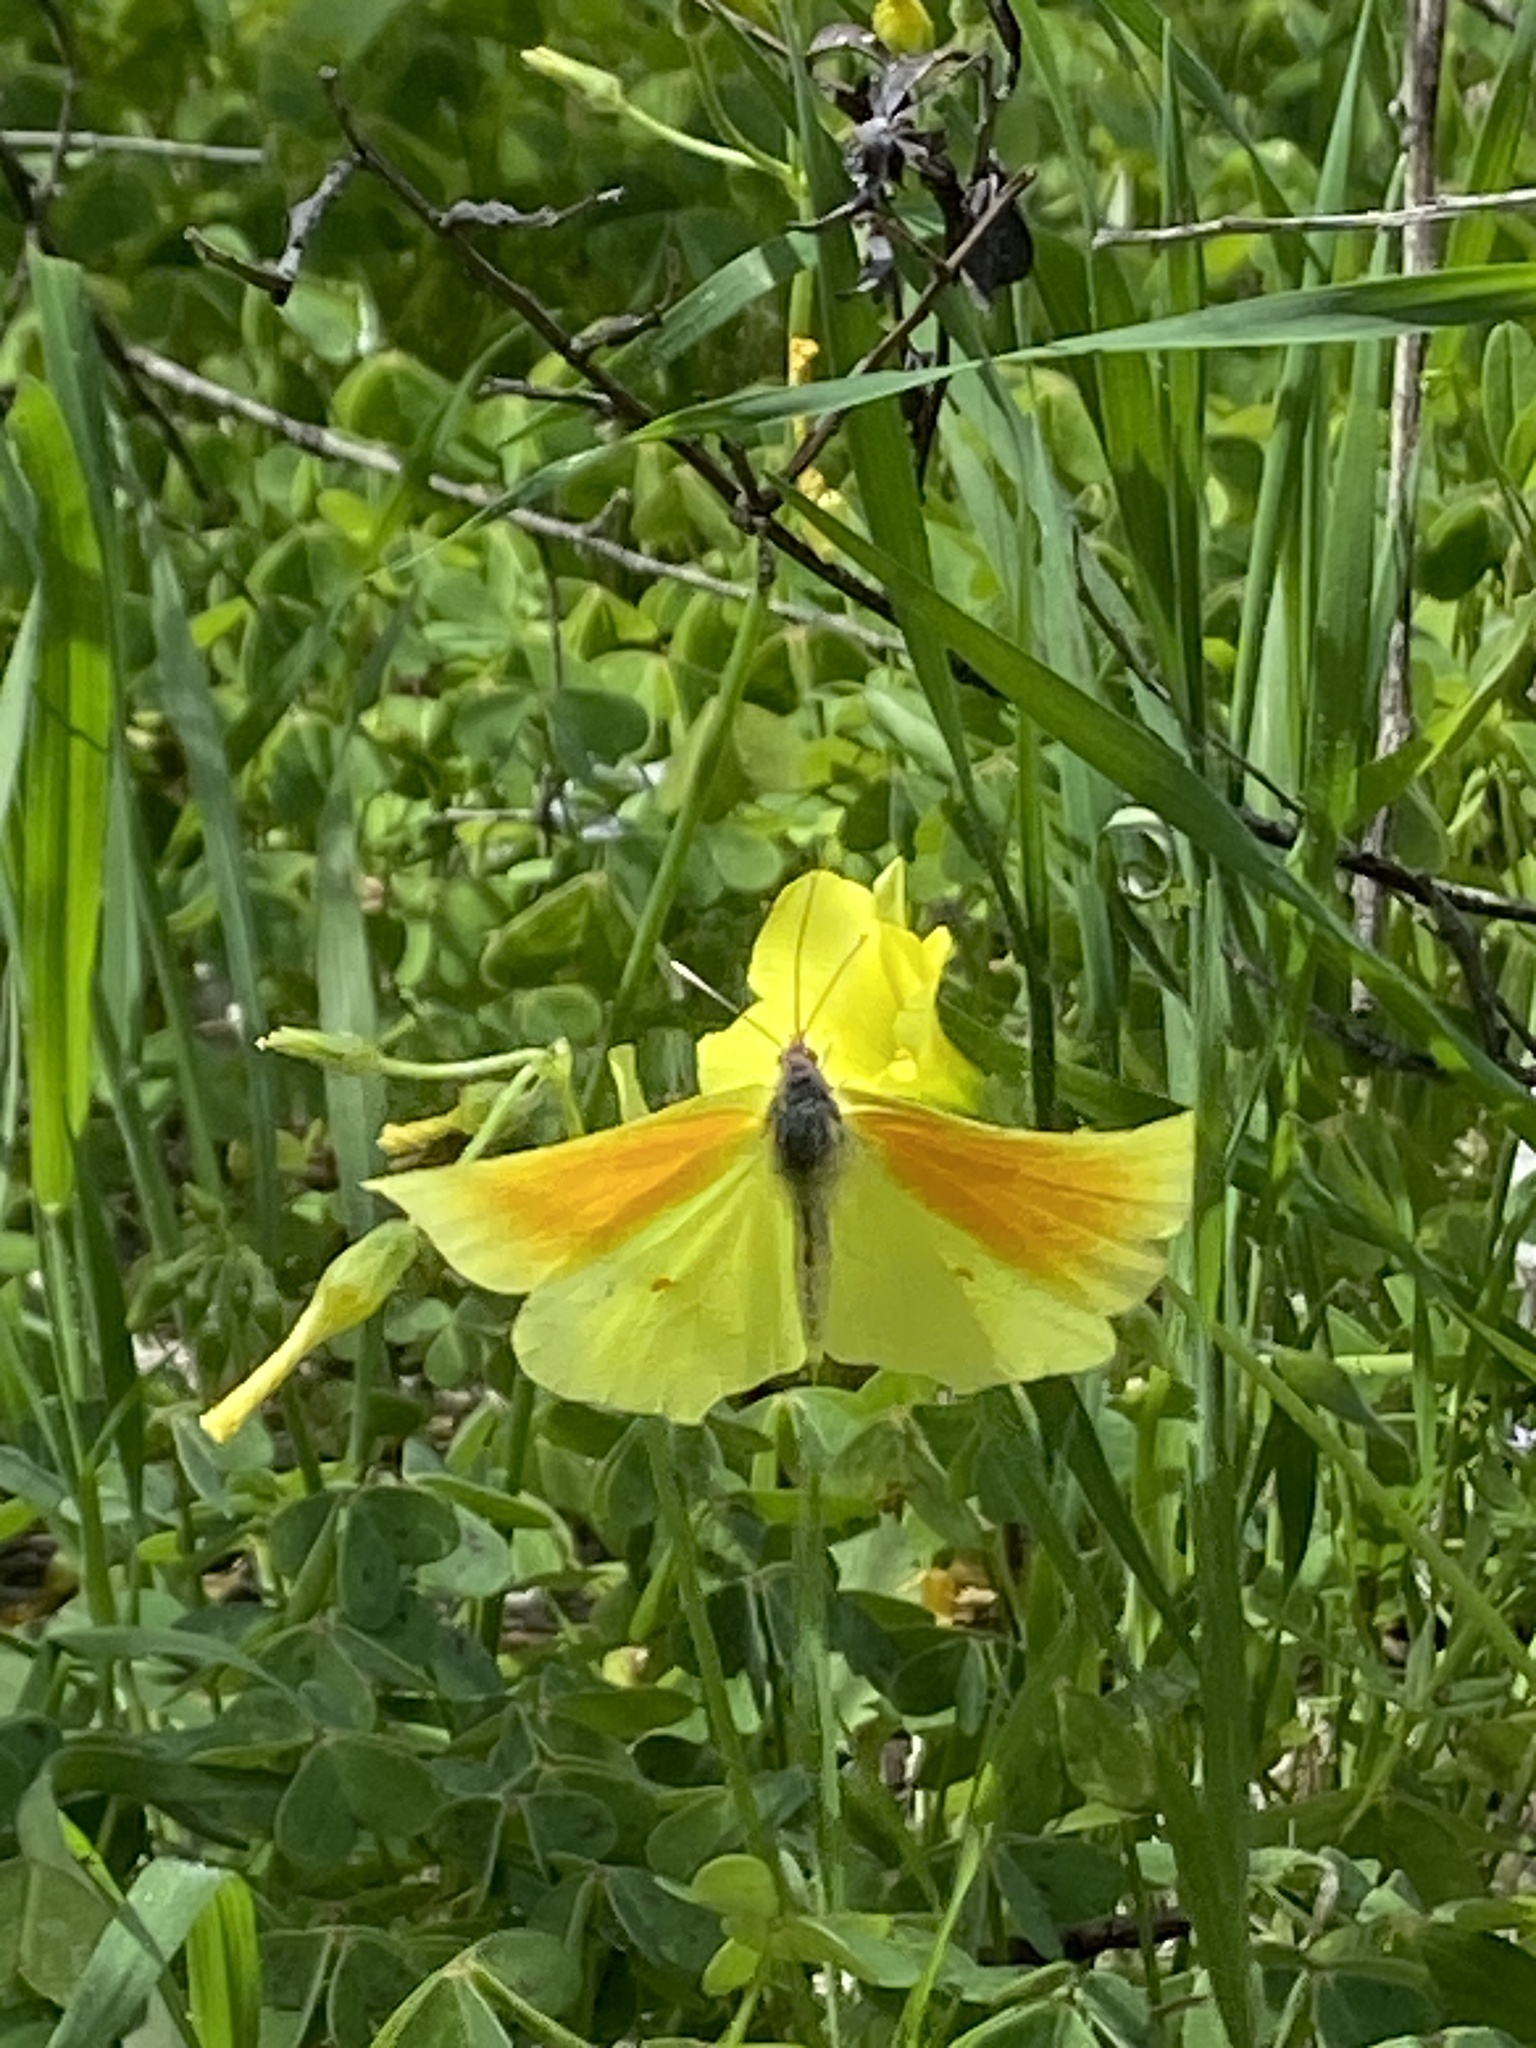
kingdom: Animalia
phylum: Arthropoda
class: Insecta
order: Lepidoptera
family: Pieridae
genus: Gonepteryx
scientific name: Gonepteryx cleopatra
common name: Cleopatra
